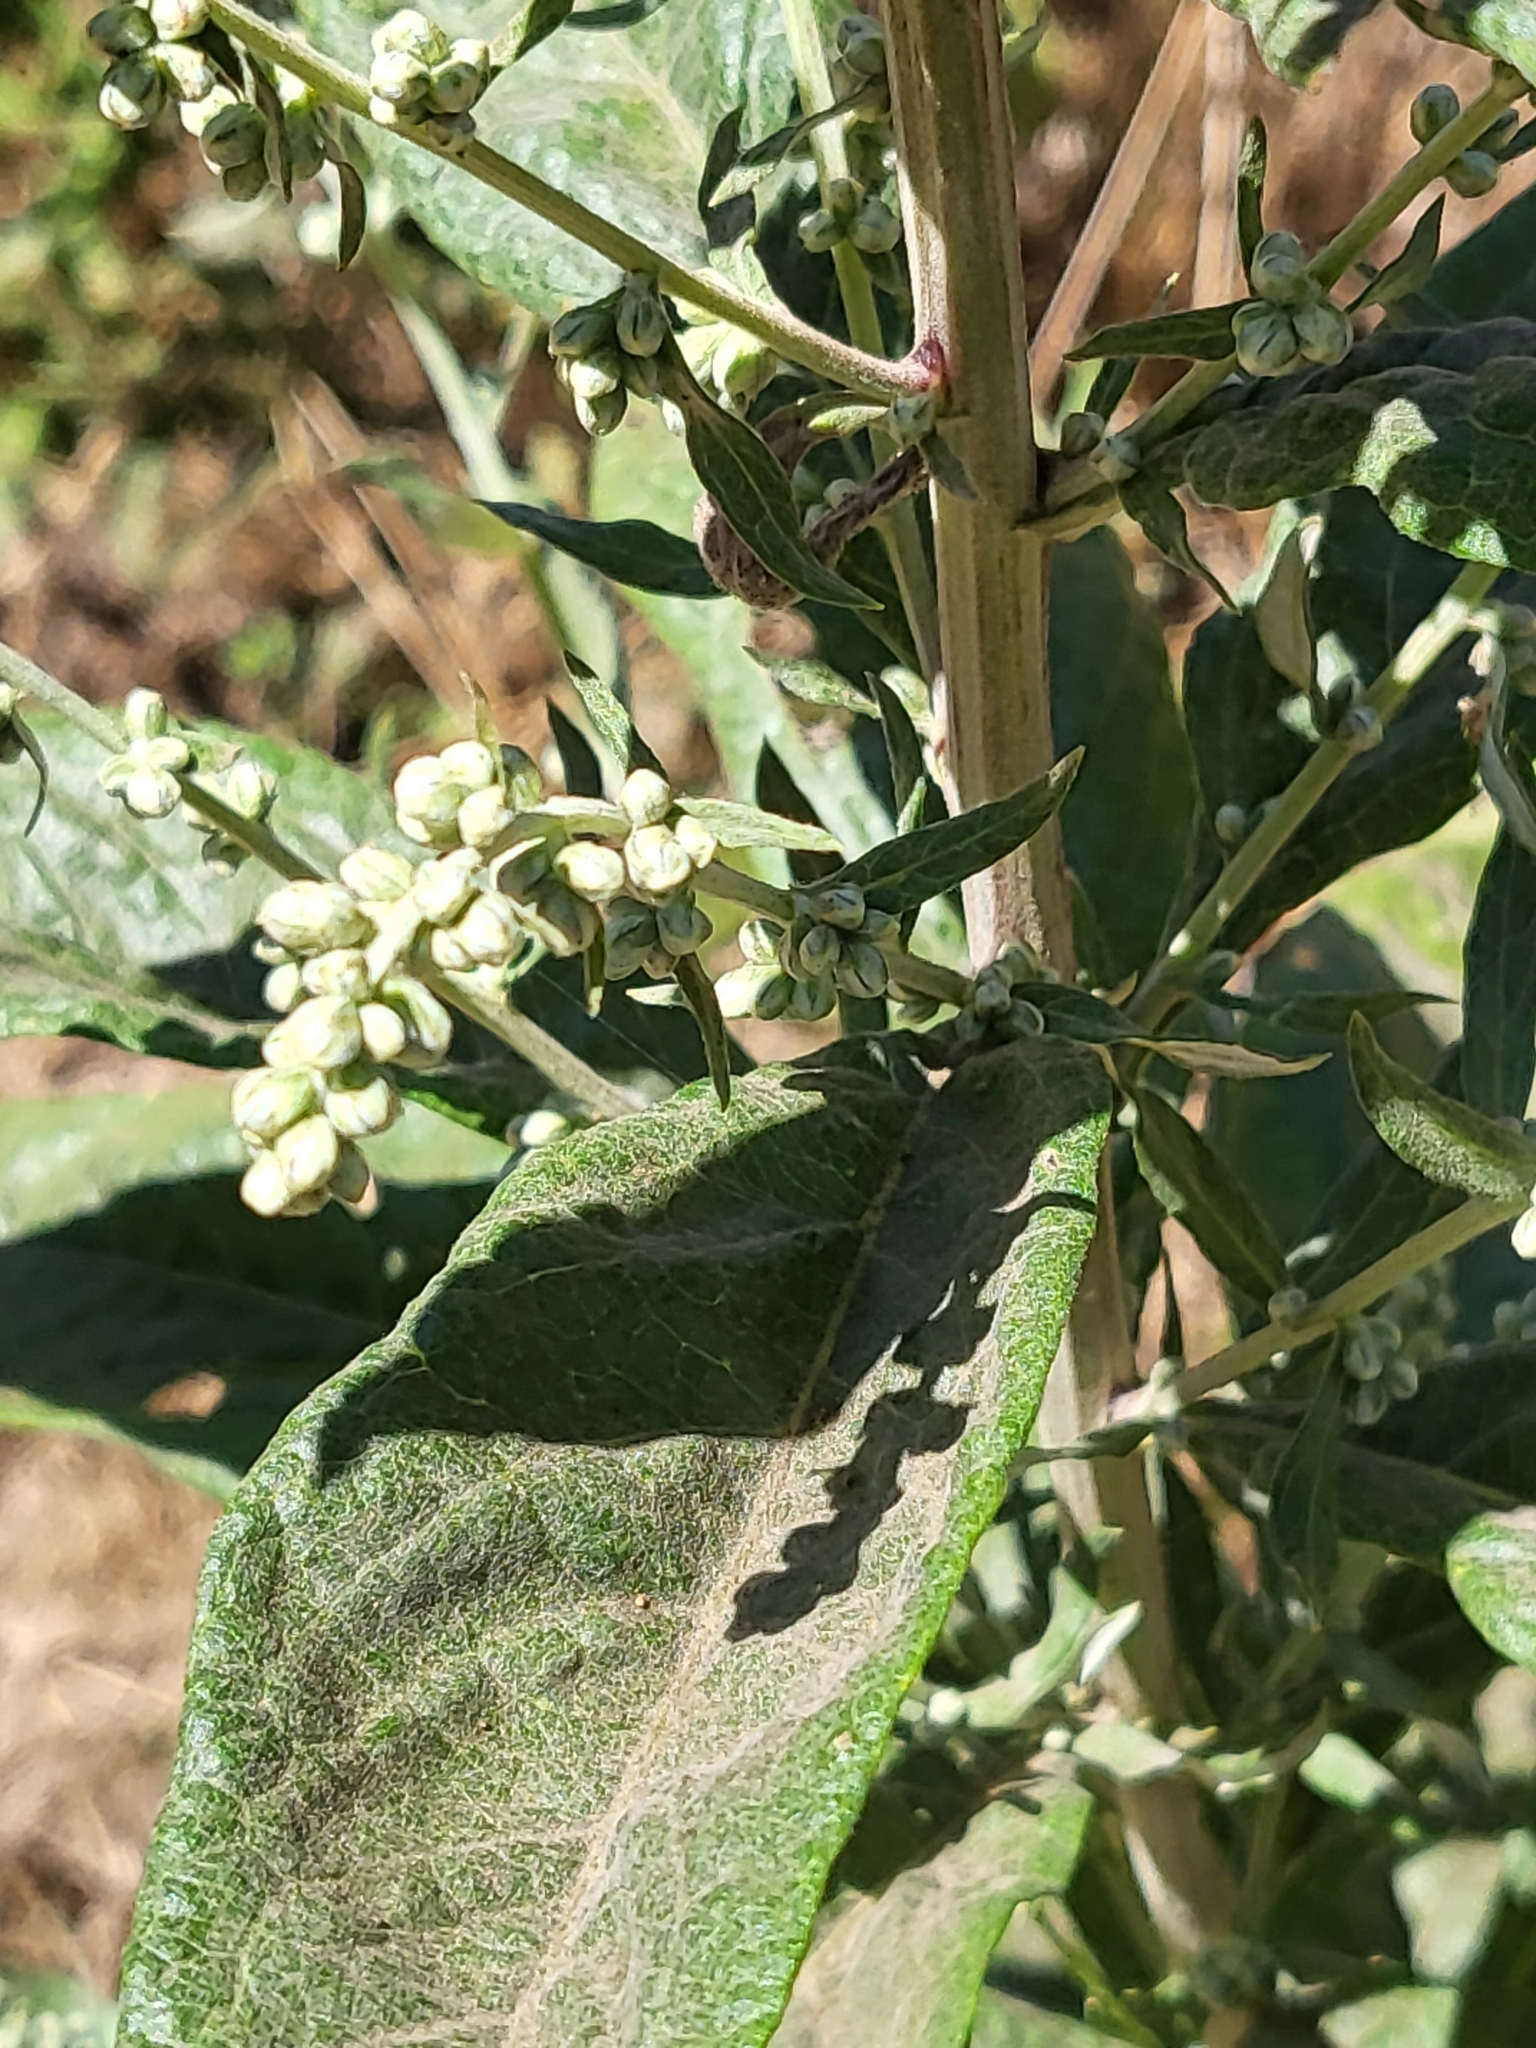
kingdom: Plantae
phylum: Tracheophyta
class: Magnoliopsida
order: Asterales
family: Asteraceae
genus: Artemisia
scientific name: Artemisia douglasiana
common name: Northwest mugwort
